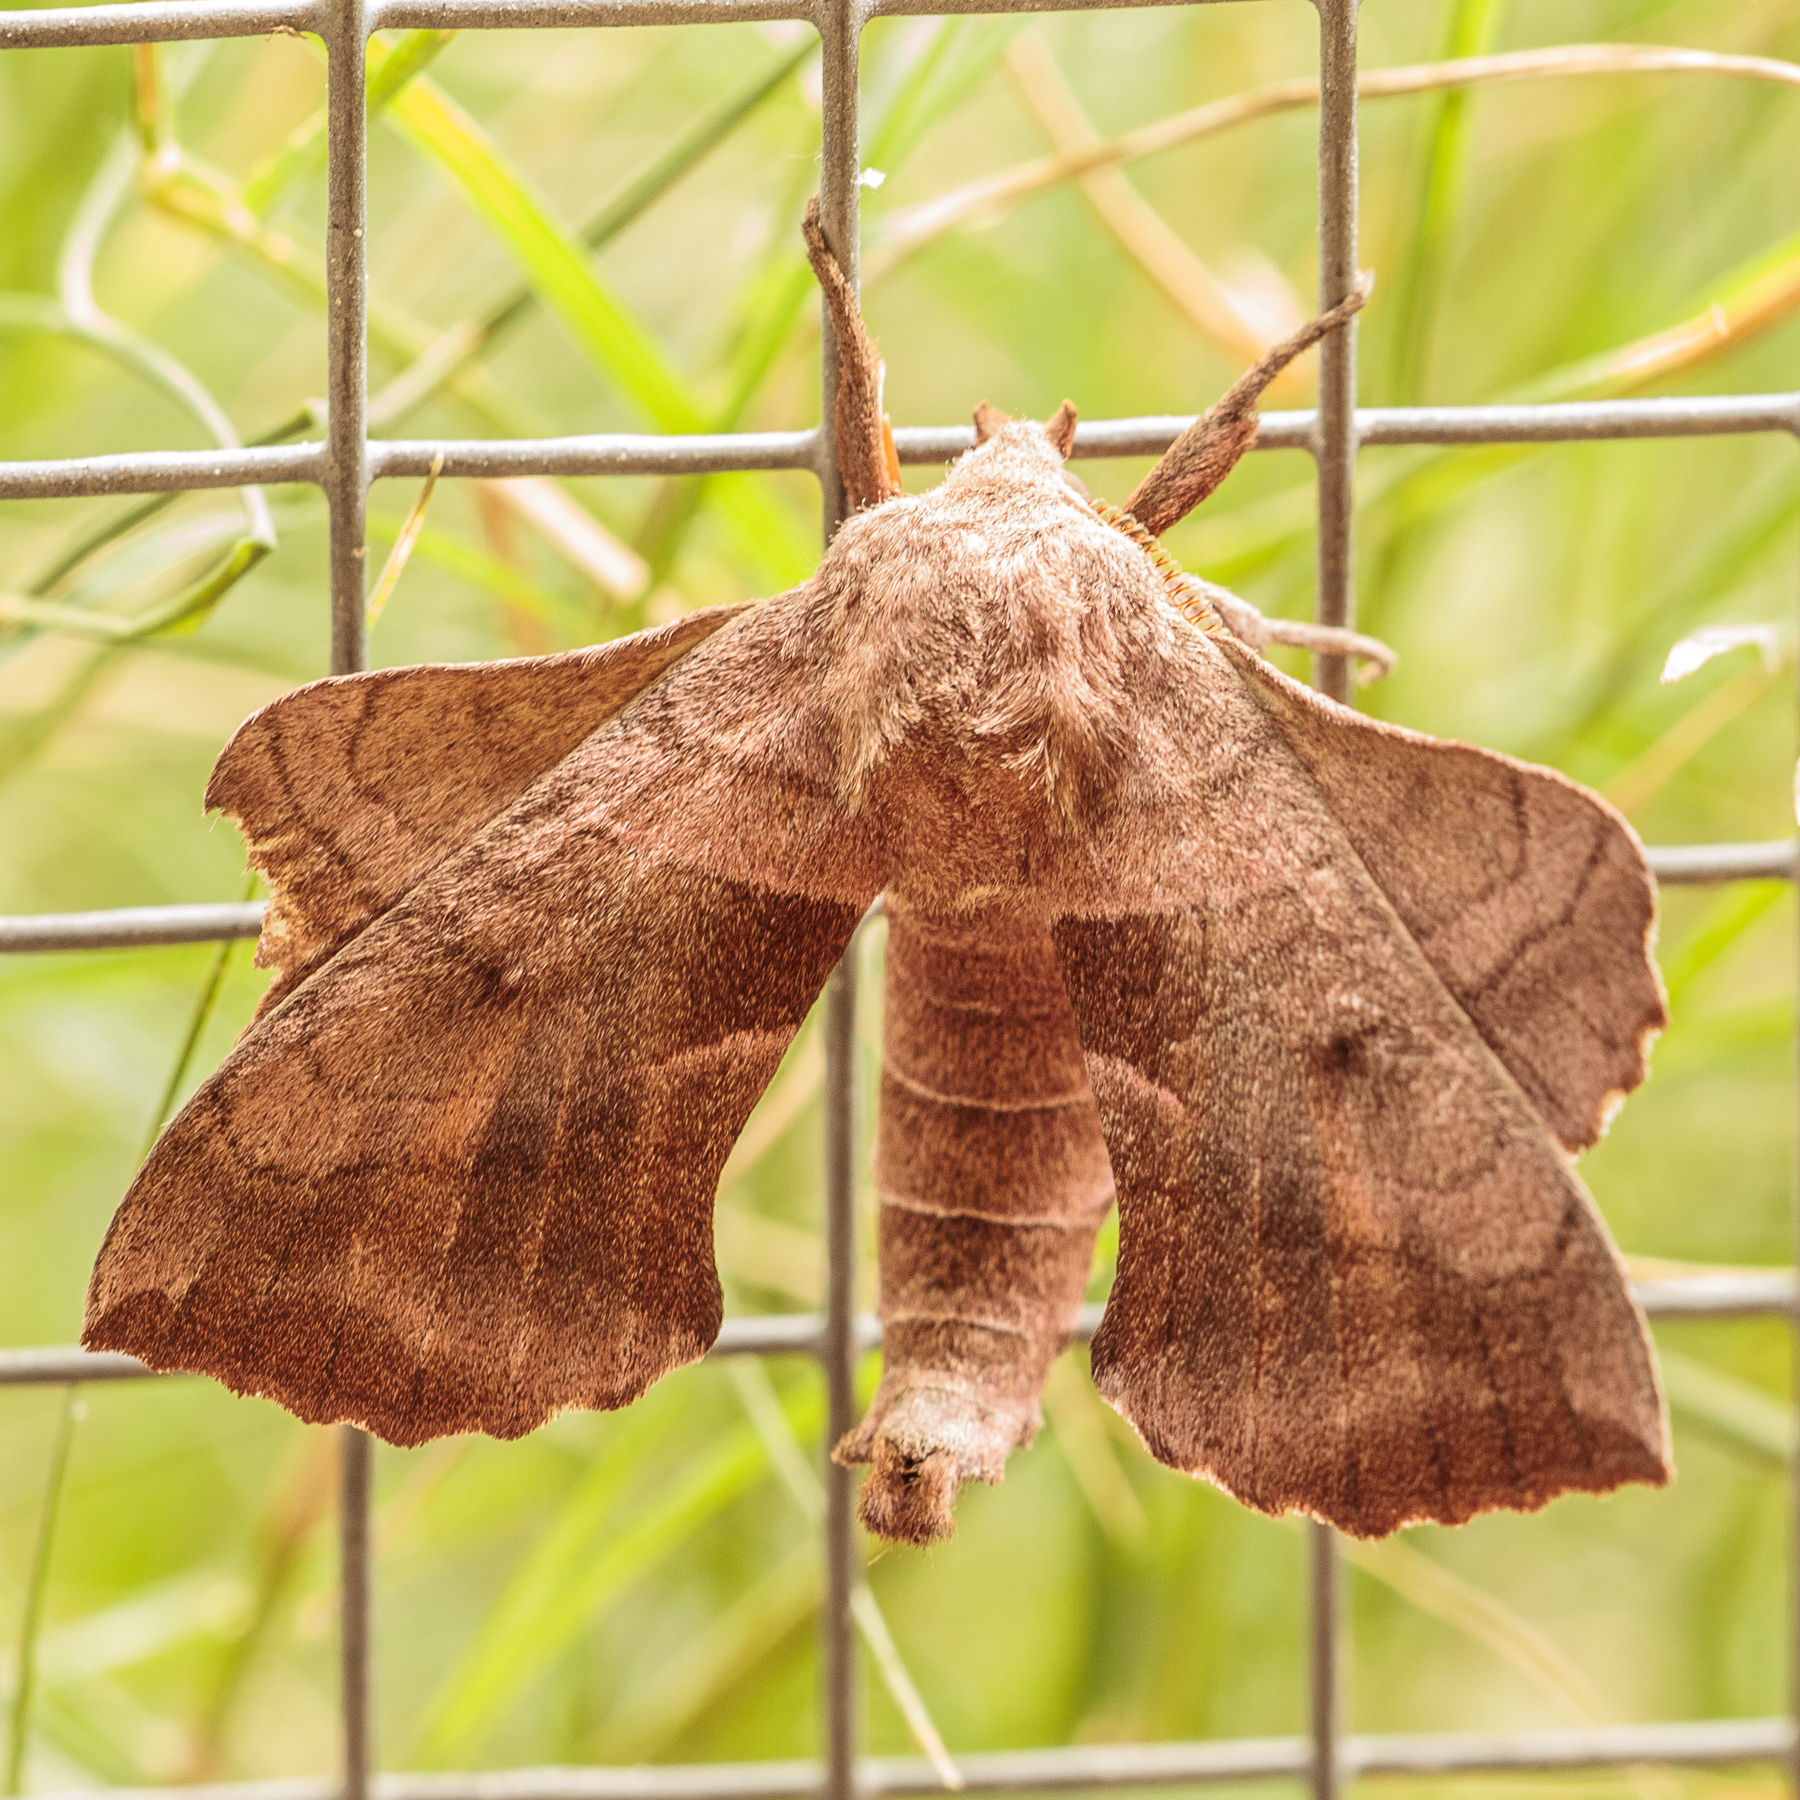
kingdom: Animalia
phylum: Arthropoda
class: Insecta
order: Lepidoptera
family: Sphingidae
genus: Amorpha
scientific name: Amorpha juglandis
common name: Walnut sphinx
